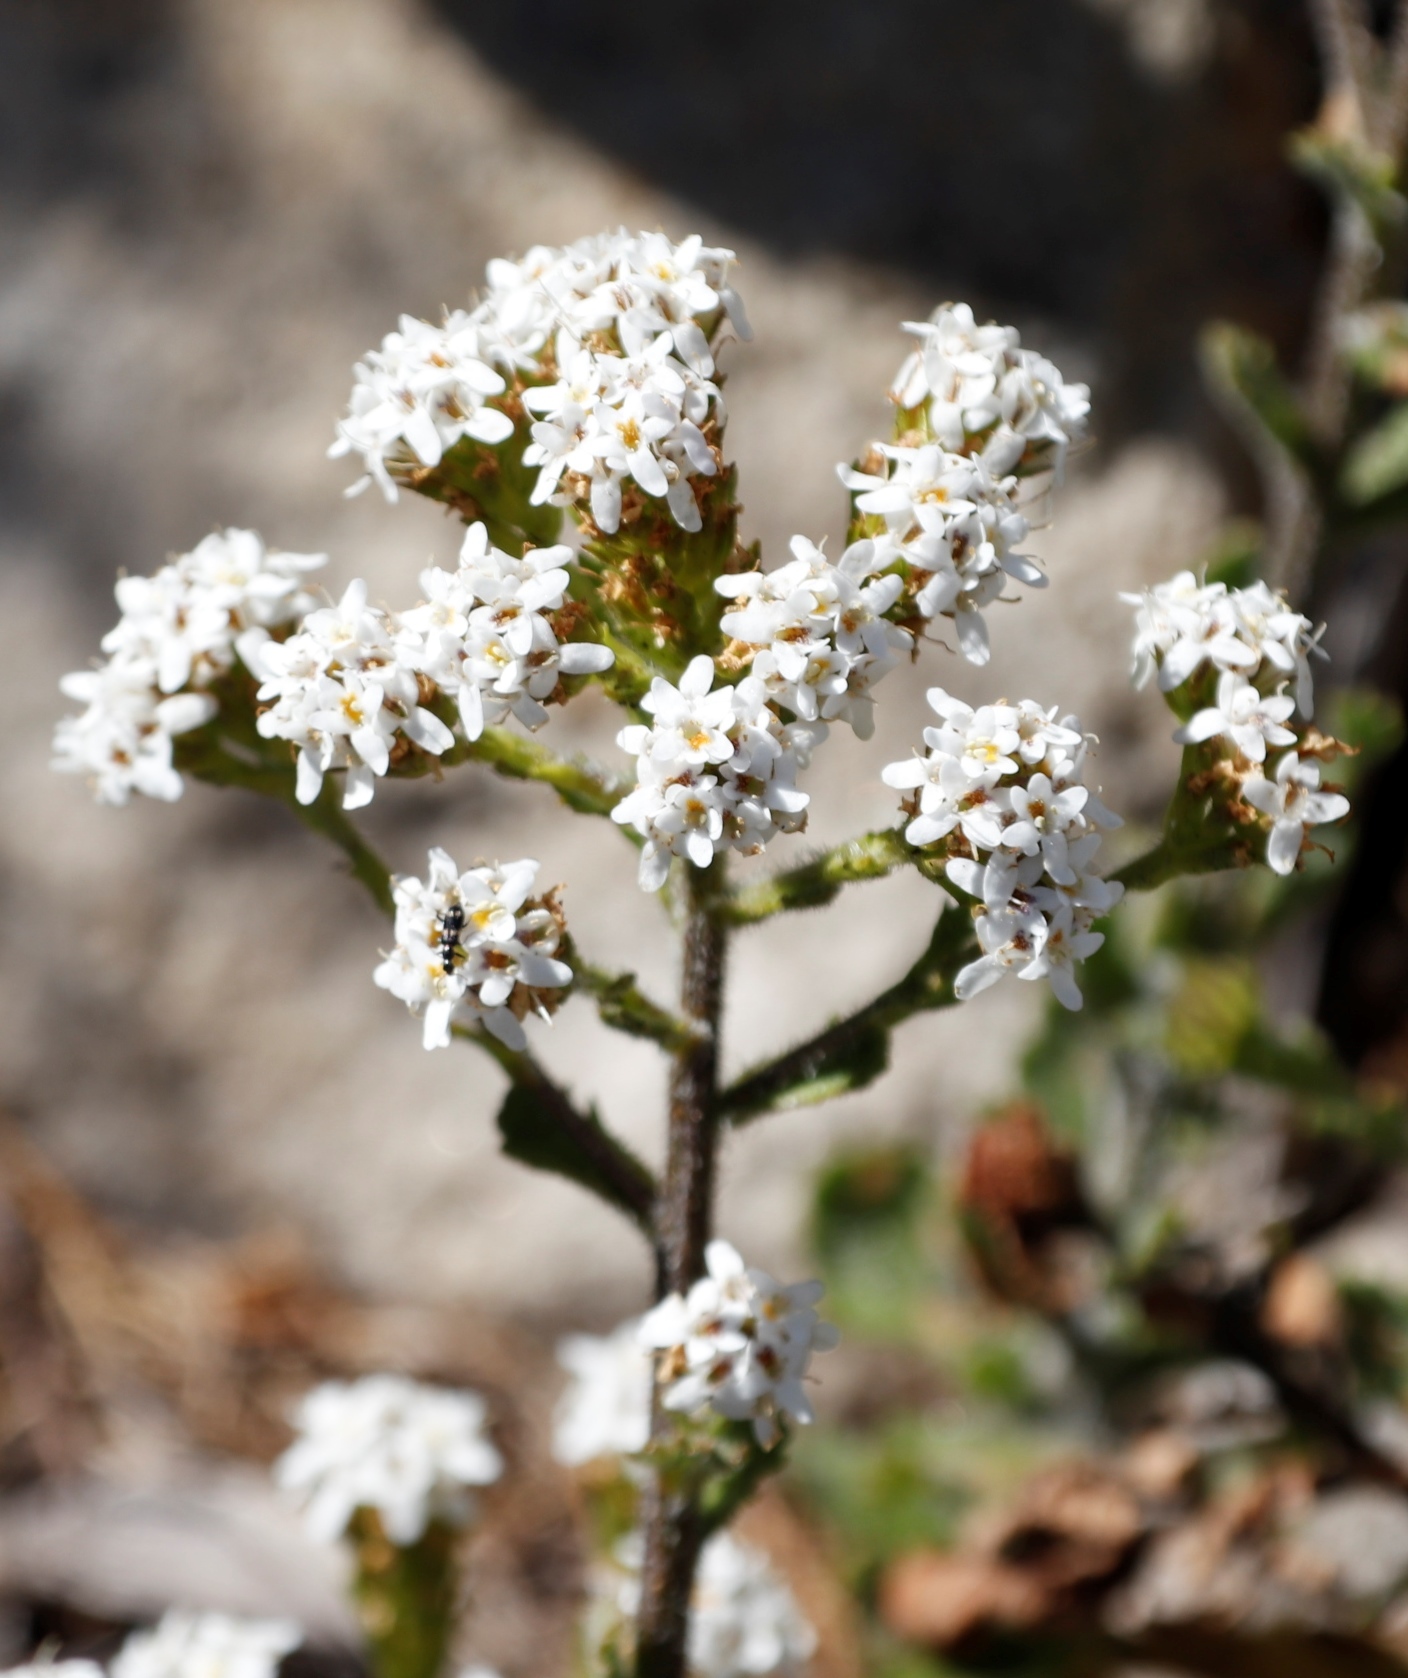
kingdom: Plantae
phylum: Tracheophyta
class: Magnoliopsida
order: Lamiales
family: Scrophulariaceae
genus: Pseudoselago
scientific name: Pseudoselago peninsulae
